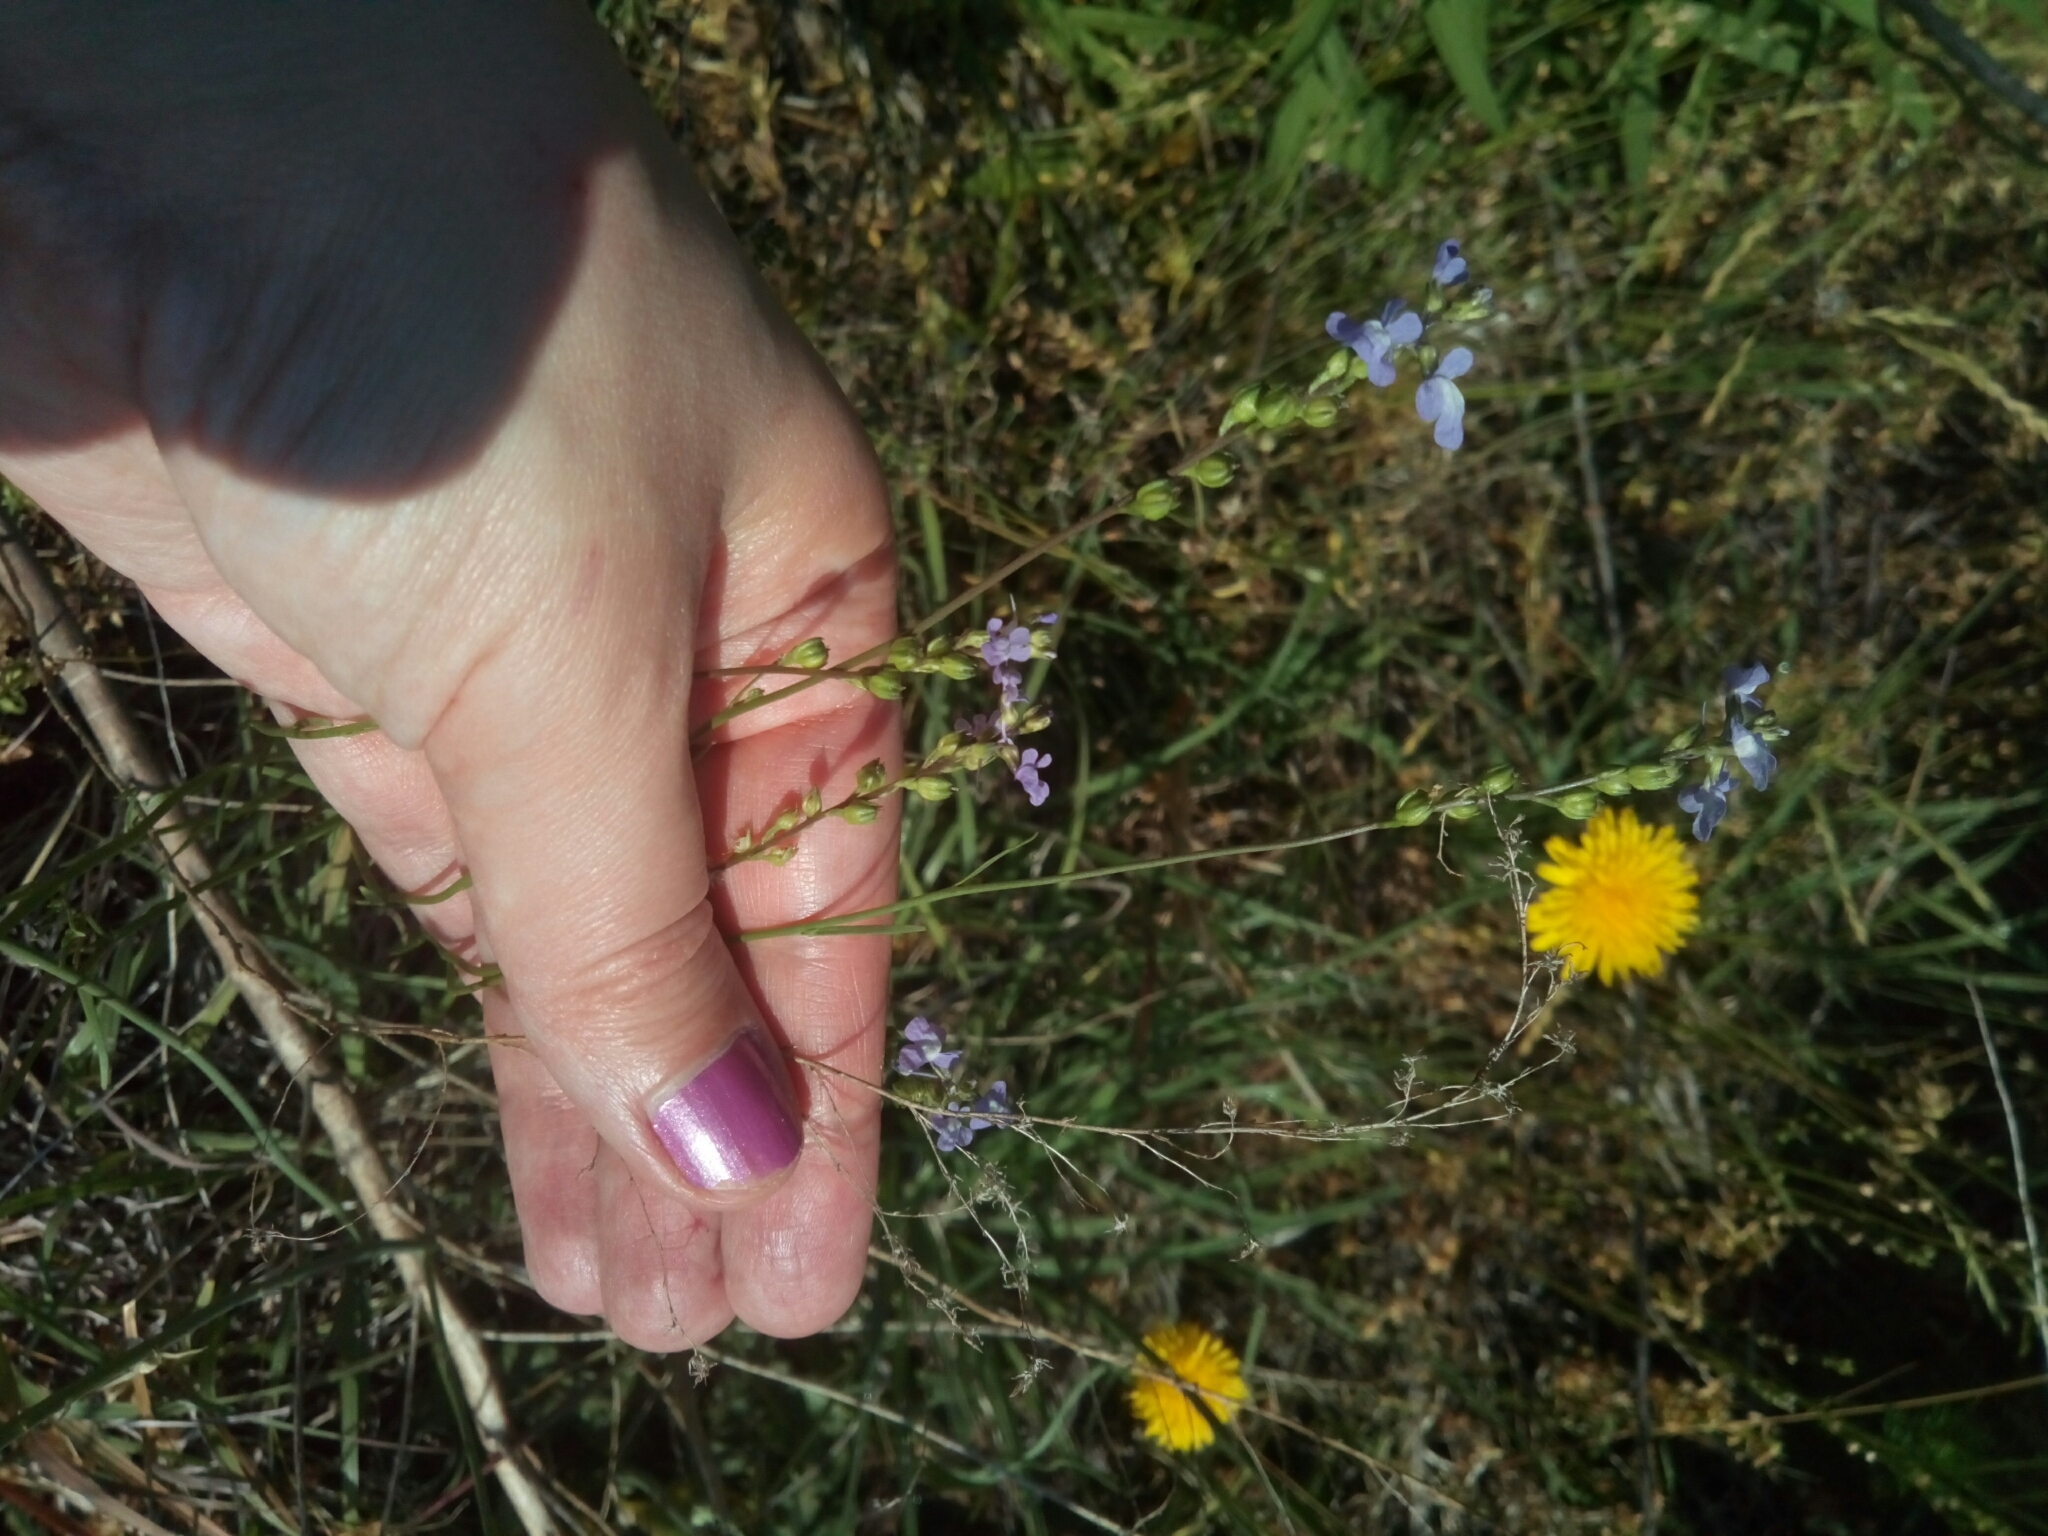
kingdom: Plantae
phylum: Tracheophyta
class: Magnoliopsida
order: Lamiales
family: Plantaginaceae
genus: Nuttallanthus
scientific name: Nuttallanthus canadensis
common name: Blue toadflax
